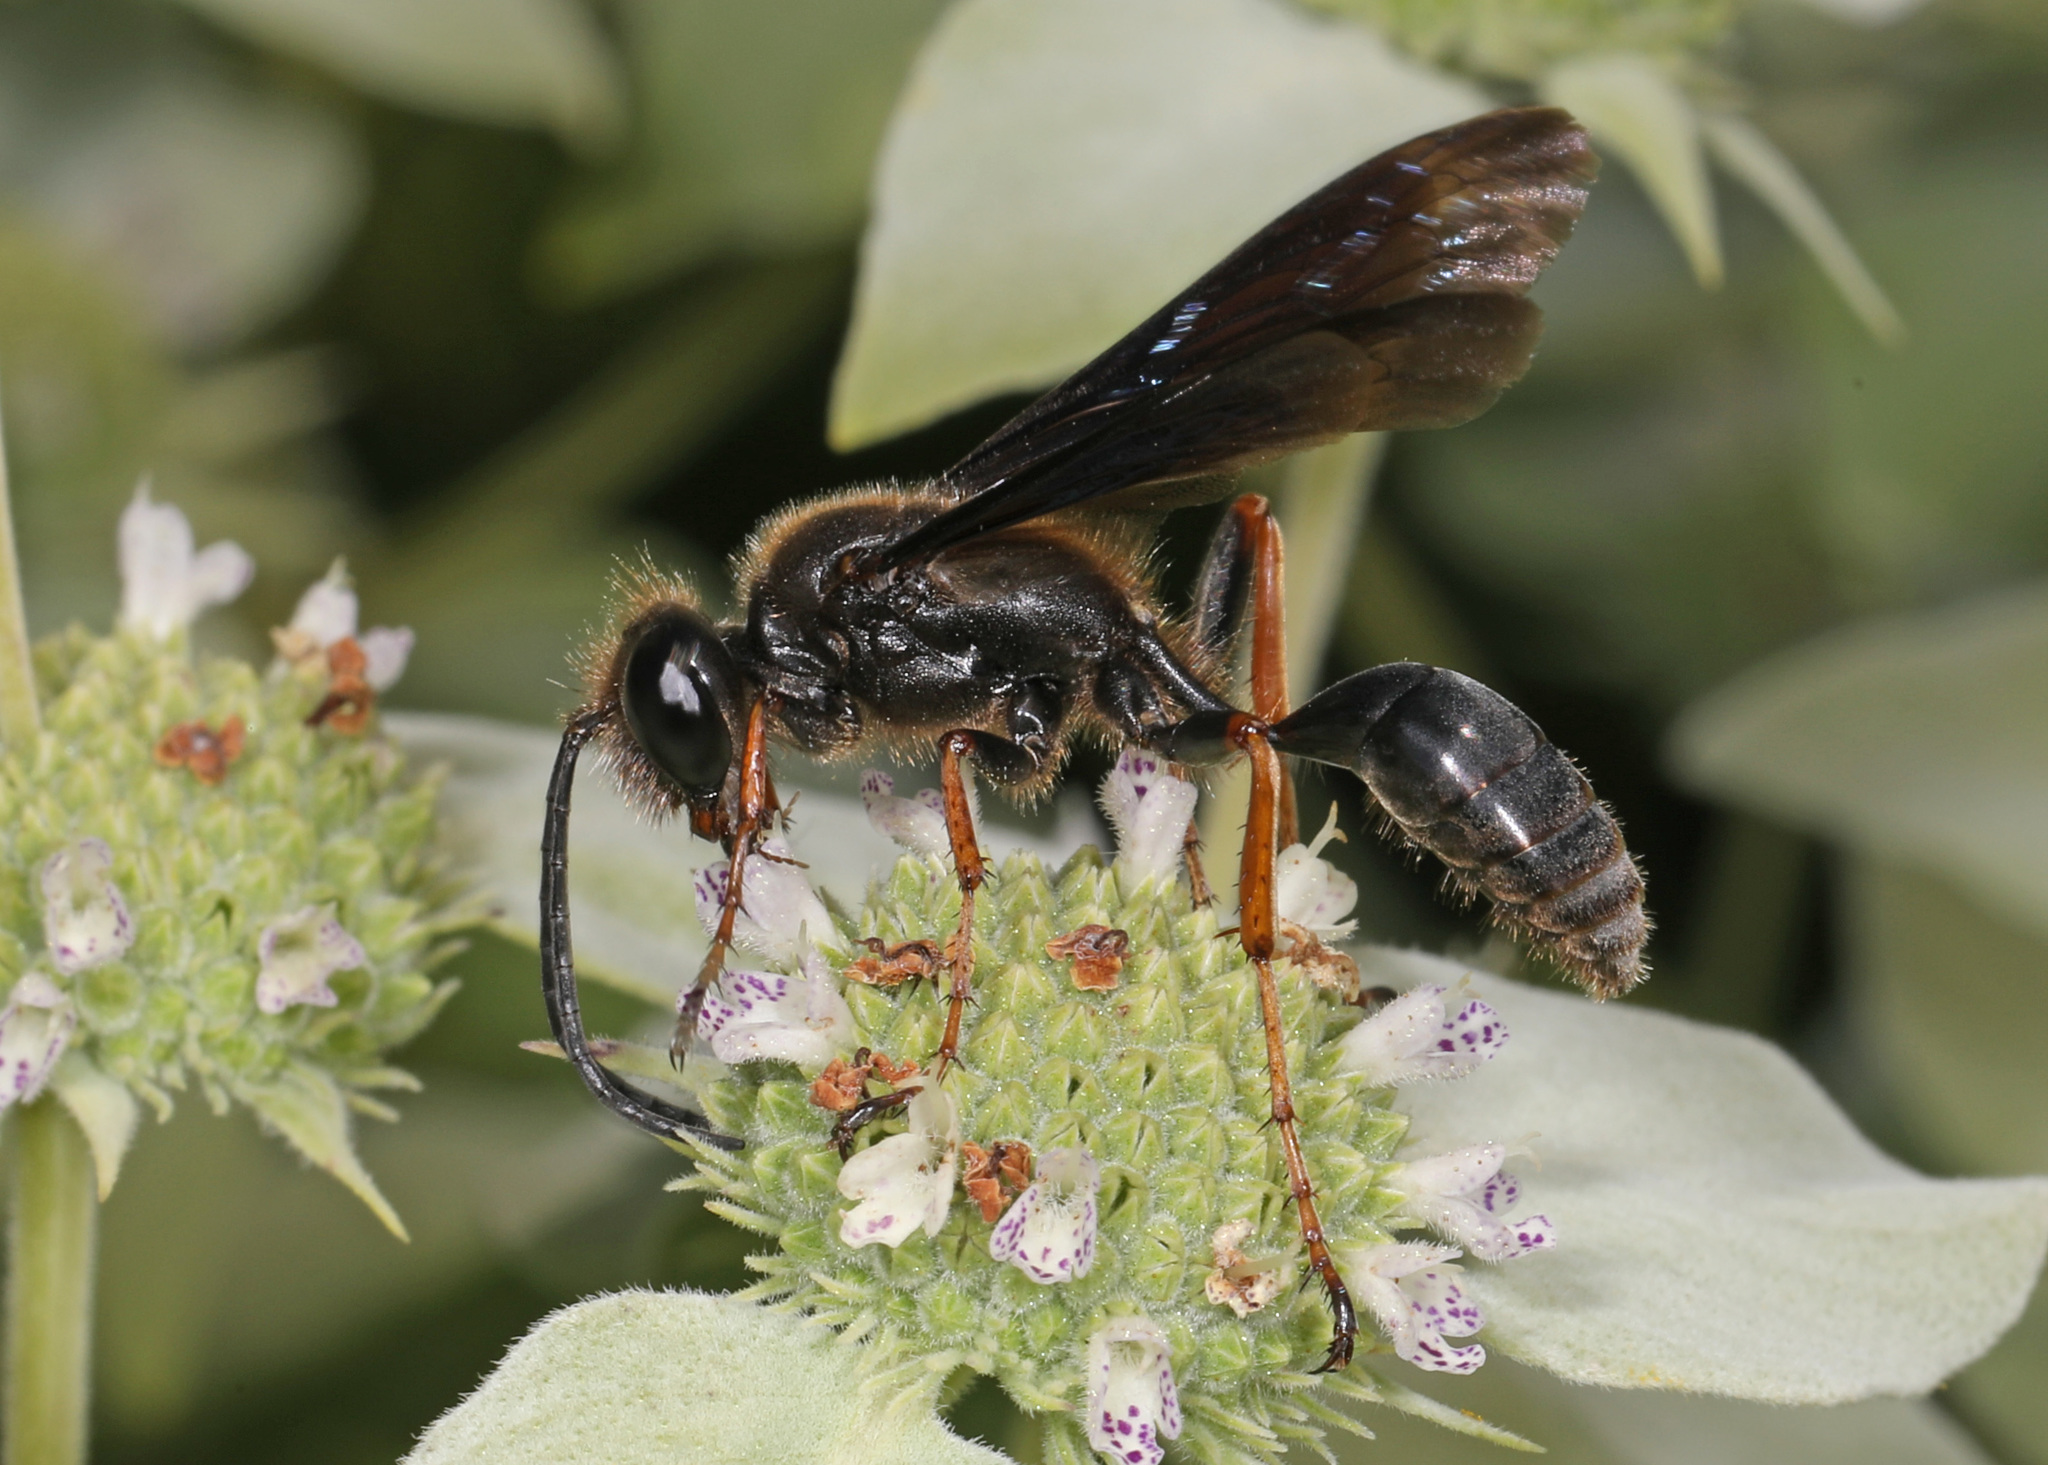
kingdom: Animalia
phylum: Arthropoda
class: Insecta
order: Hymenoptera
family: Sphecidae
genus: Isodontia
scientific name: Isodontia auripes
